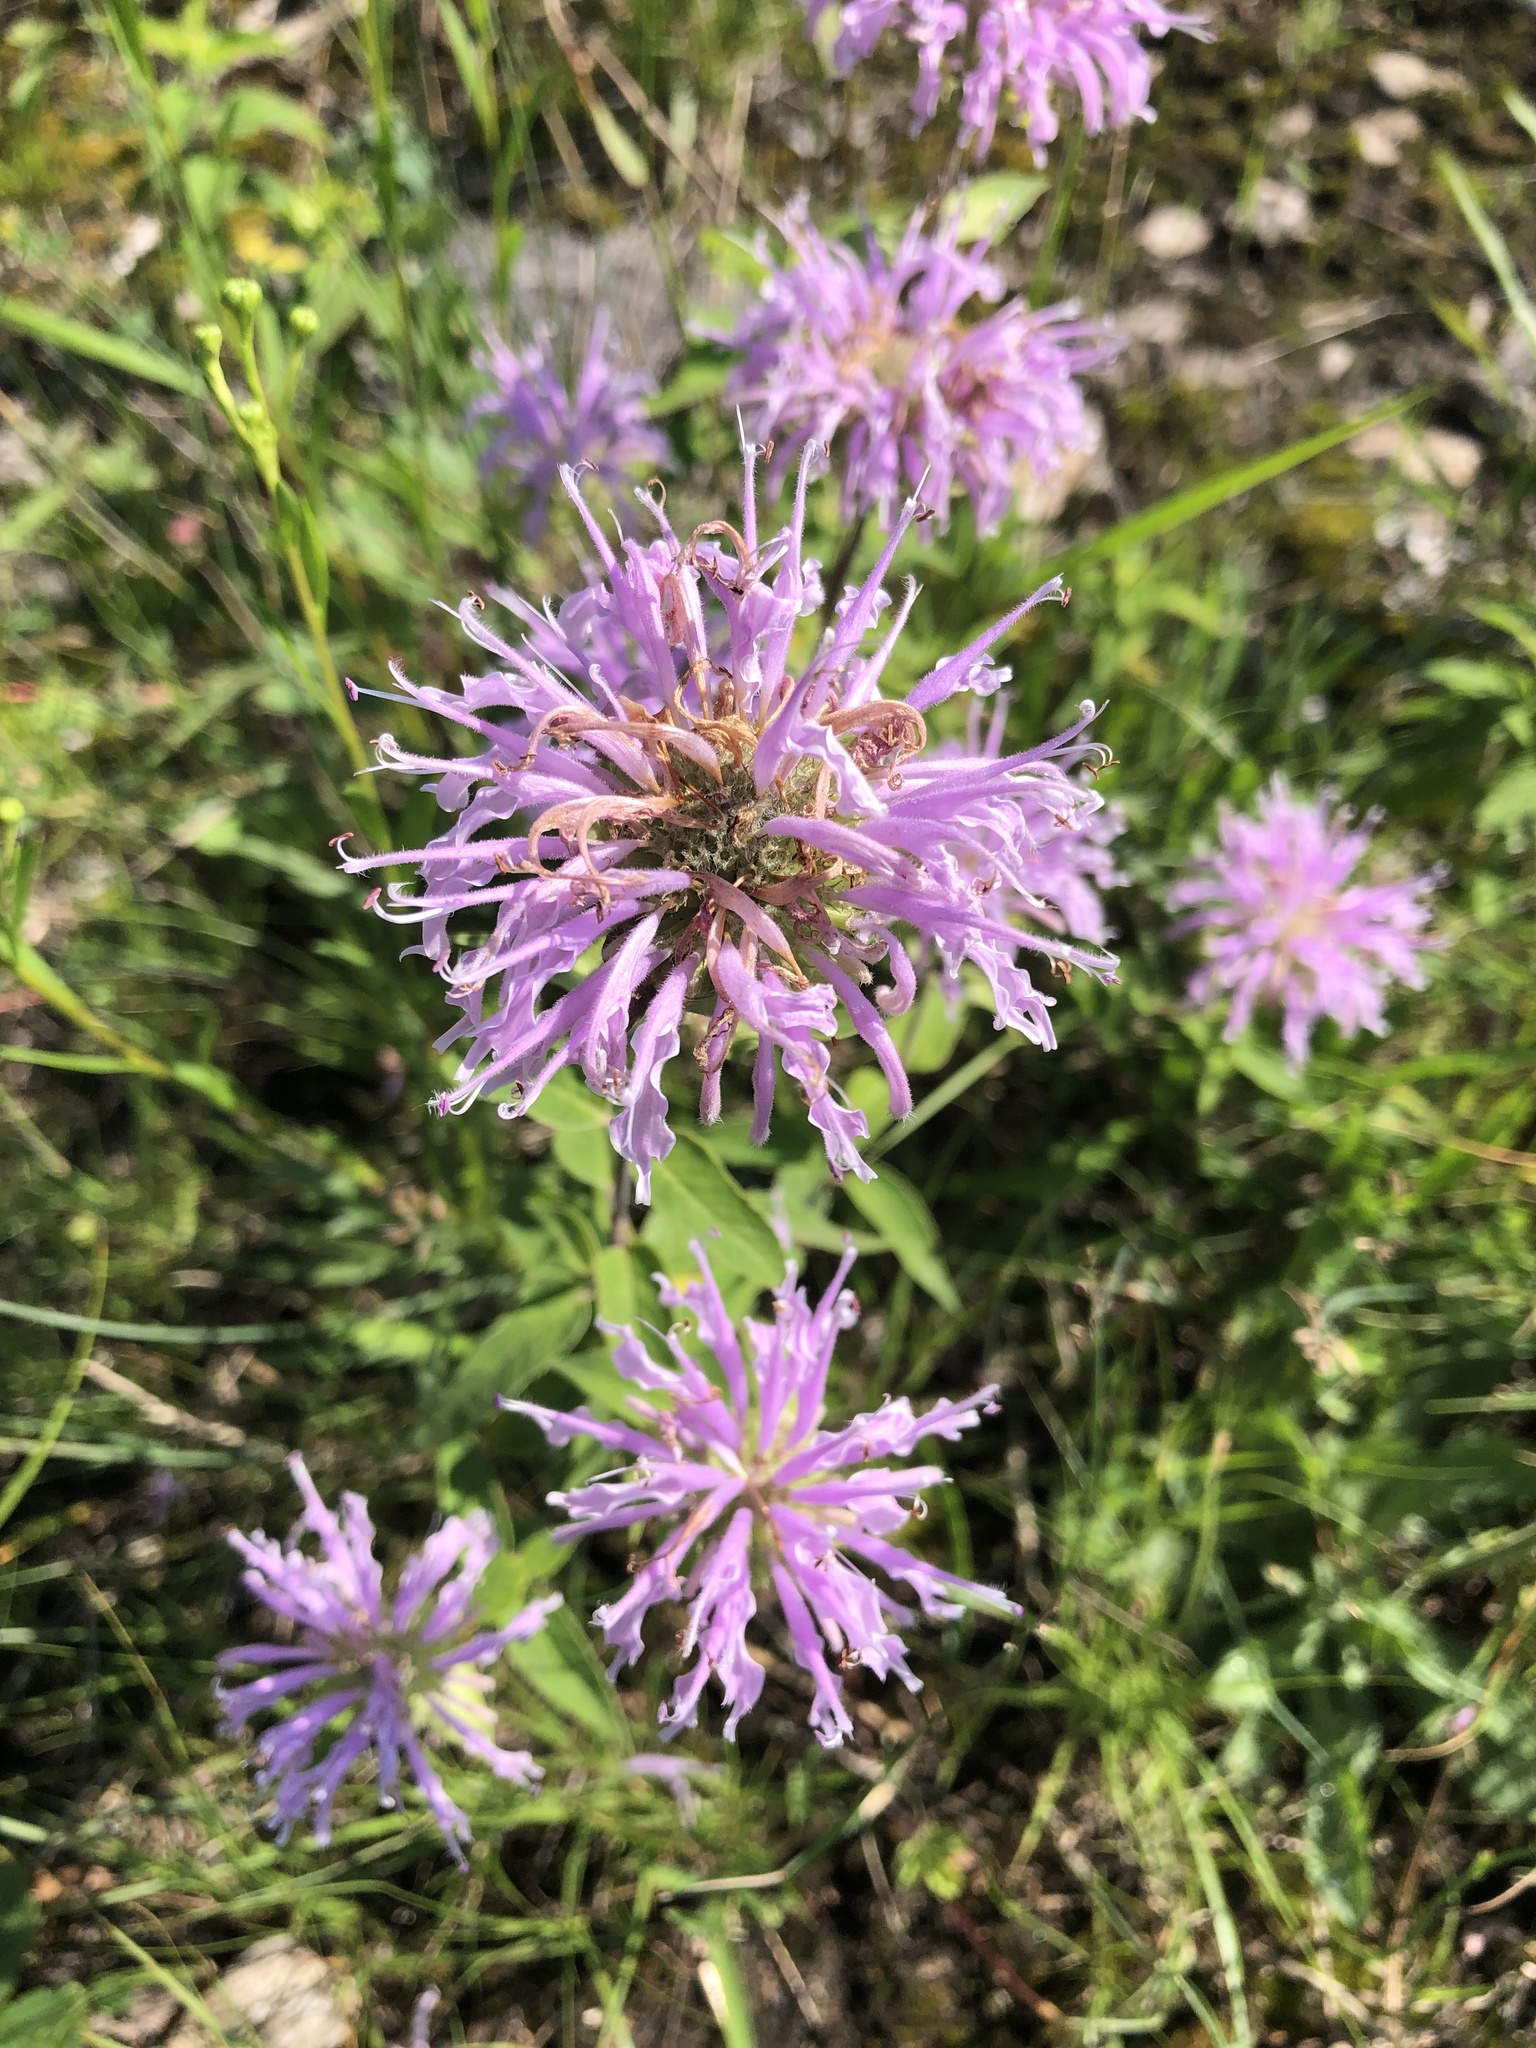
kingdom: Plantae
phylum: Tracheophyta
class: Magnoliopsida
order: Lamiales
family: Lamiaceae
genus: Monarda
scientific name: Monarda fistulosa
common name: Purple beebalm
